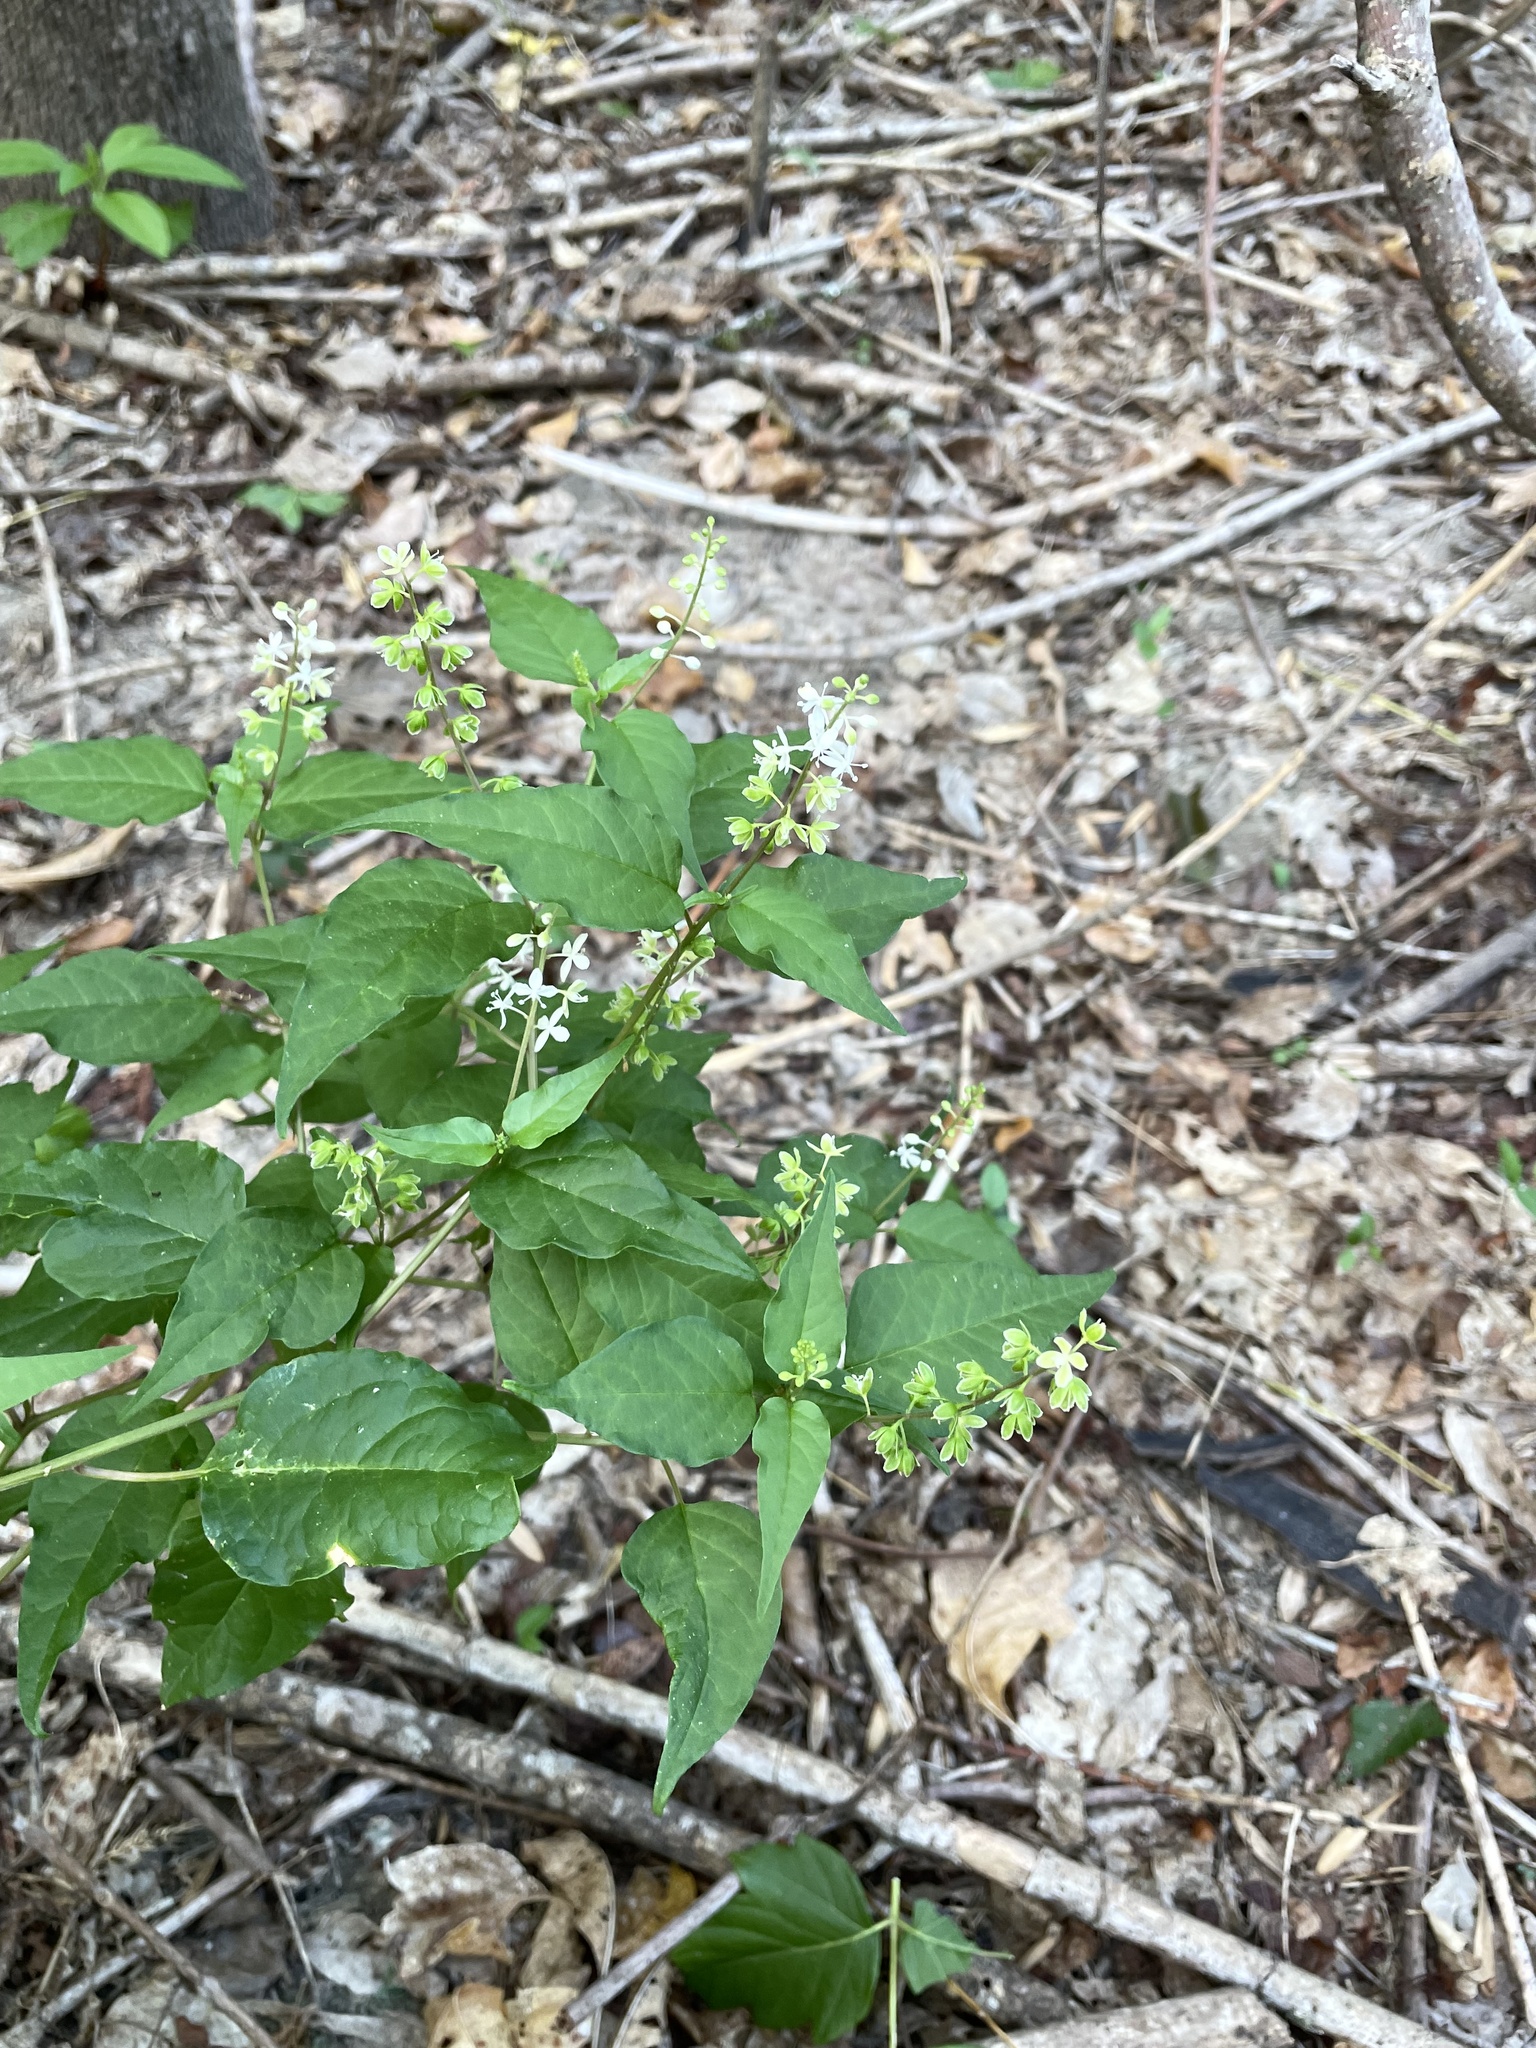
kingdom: Plantae
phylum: Tracheophyta
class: Magnoliopsida
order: Caryophyllales
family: Phytolaccaceae
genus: Rivina
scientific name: Rivina humilis
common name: Rougeplant
